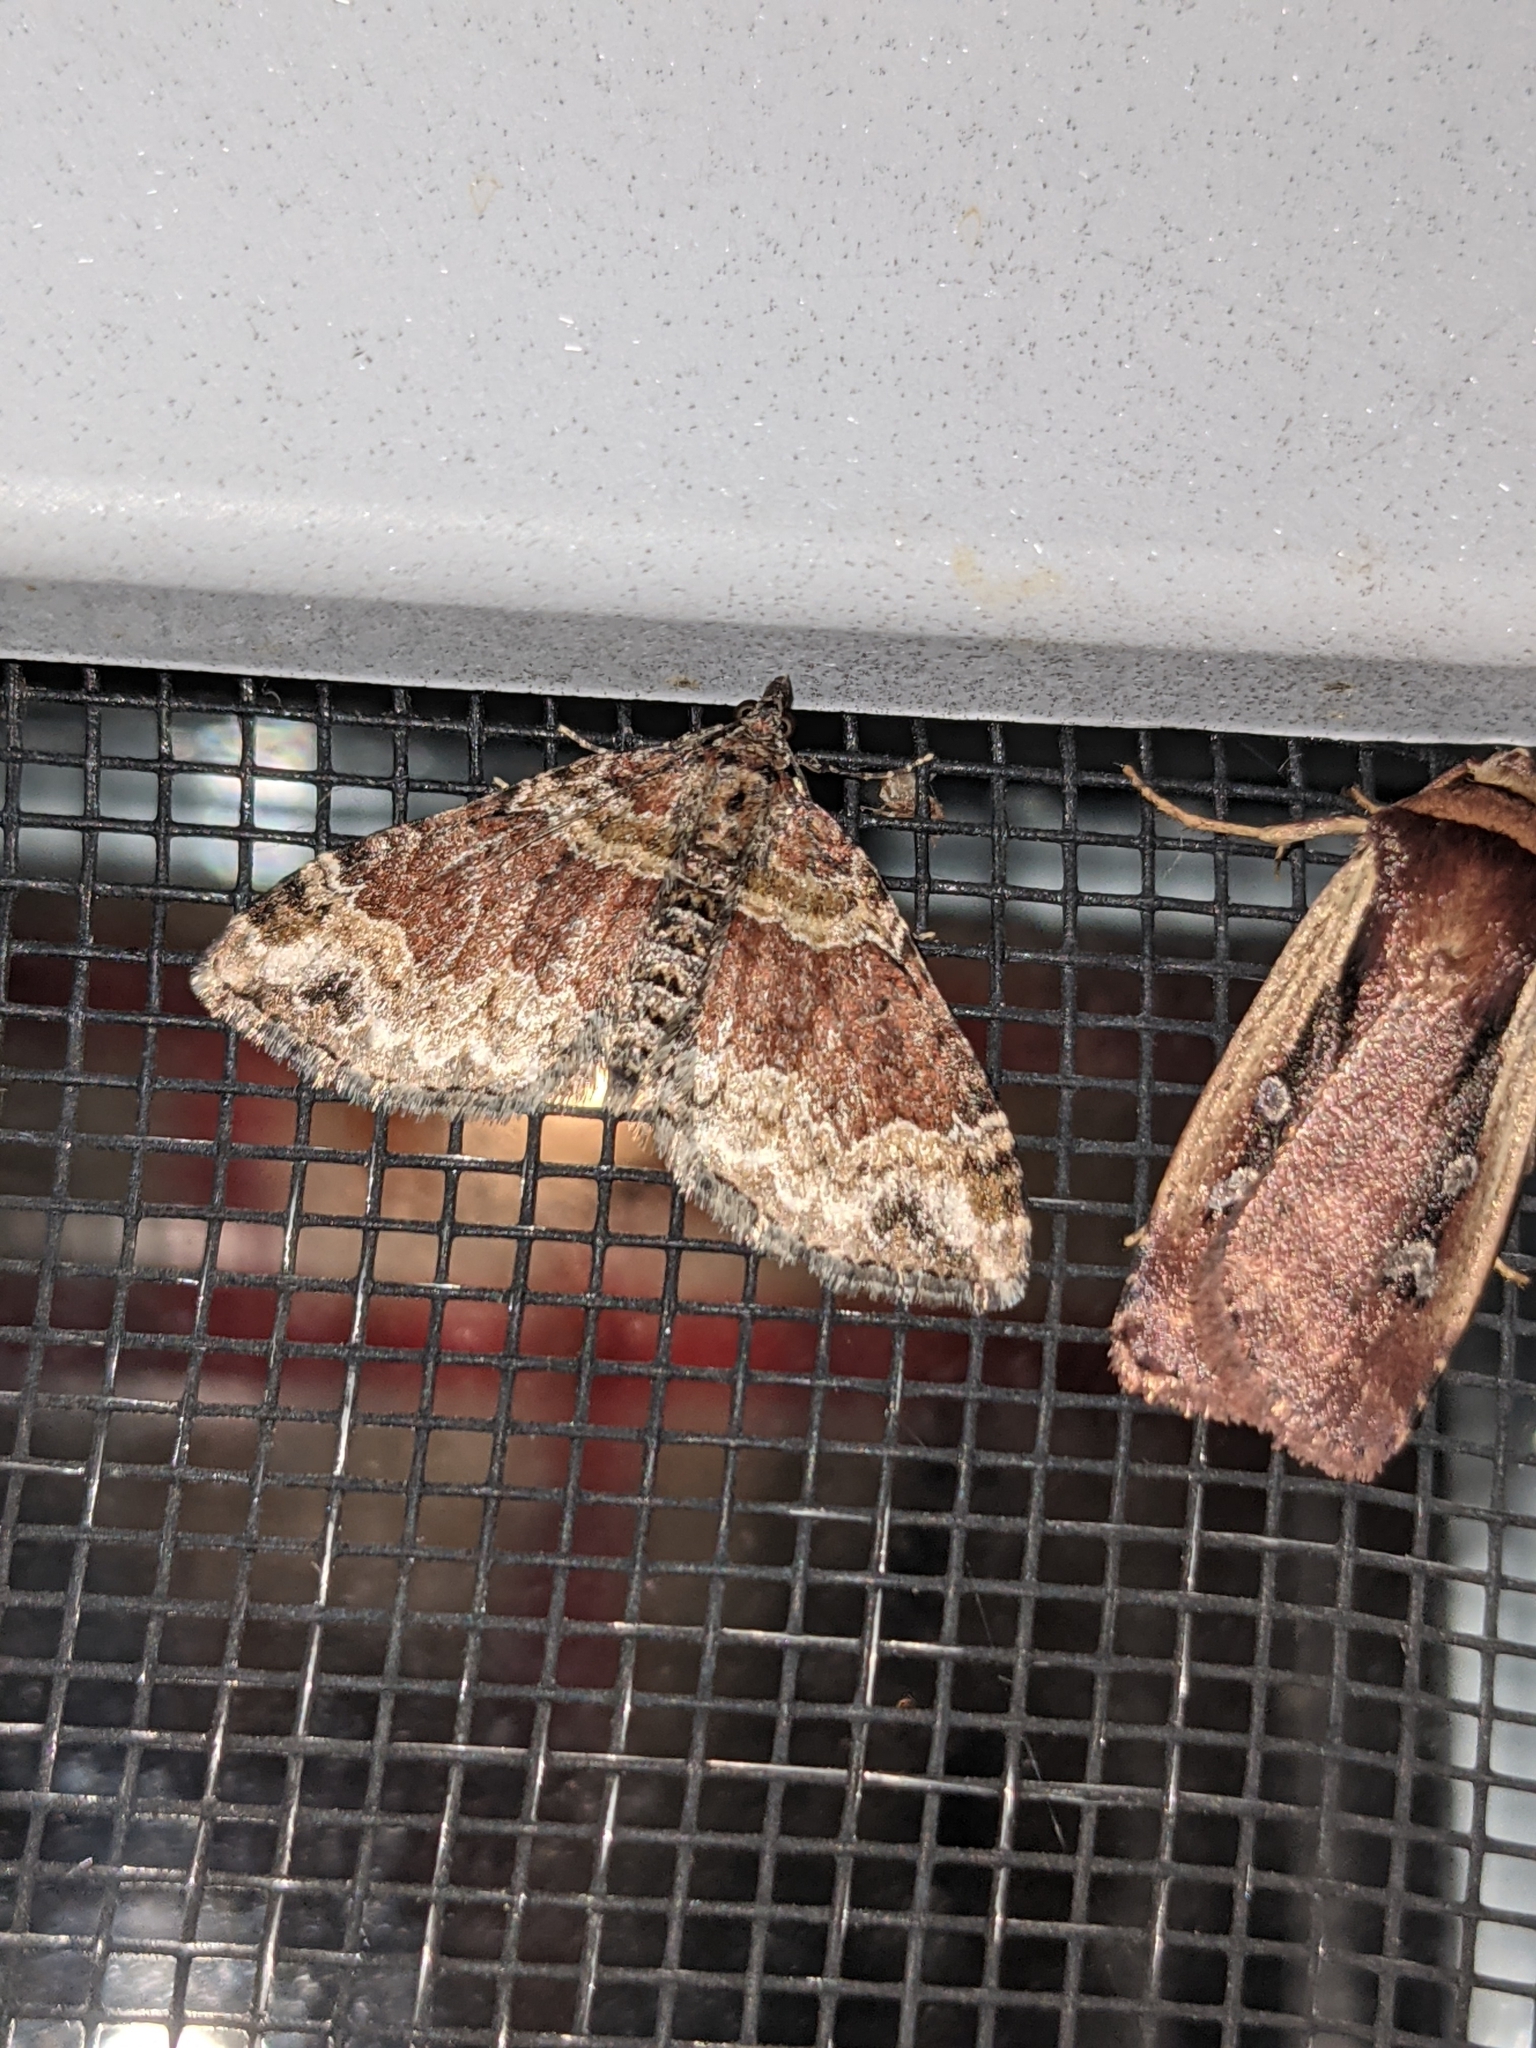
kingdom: Animalia
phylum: Arthropoda
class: Insecta
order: Lepidoptera
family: Geometridae
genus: Xanthorhoe
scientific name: Xanthorhoe ferrugata
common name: Dark-barred twin-spot carpet
